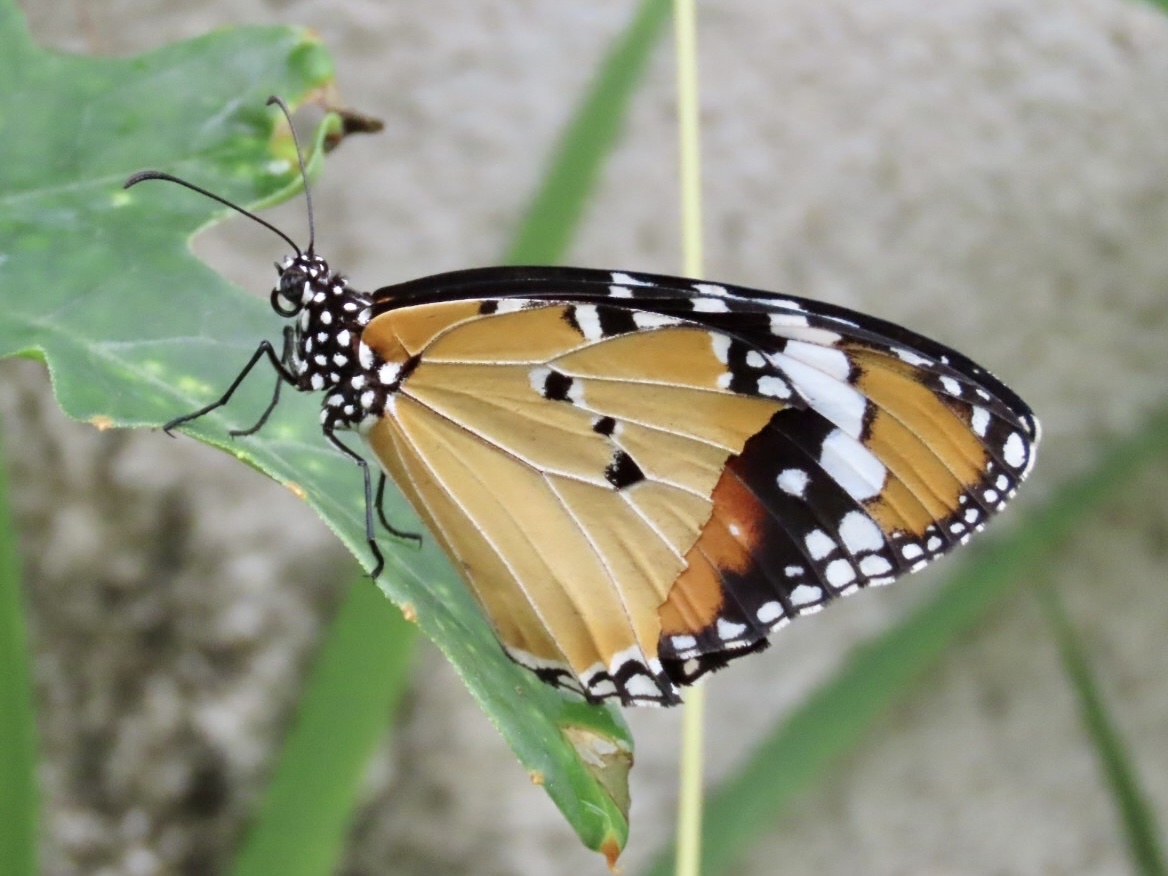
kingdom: Animalia
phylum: Arthropoda
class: Insecta
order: Lepidoptera
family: Nymphalidae
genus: Danaus
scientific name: Danaus chrysippus
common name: Plain tiger
